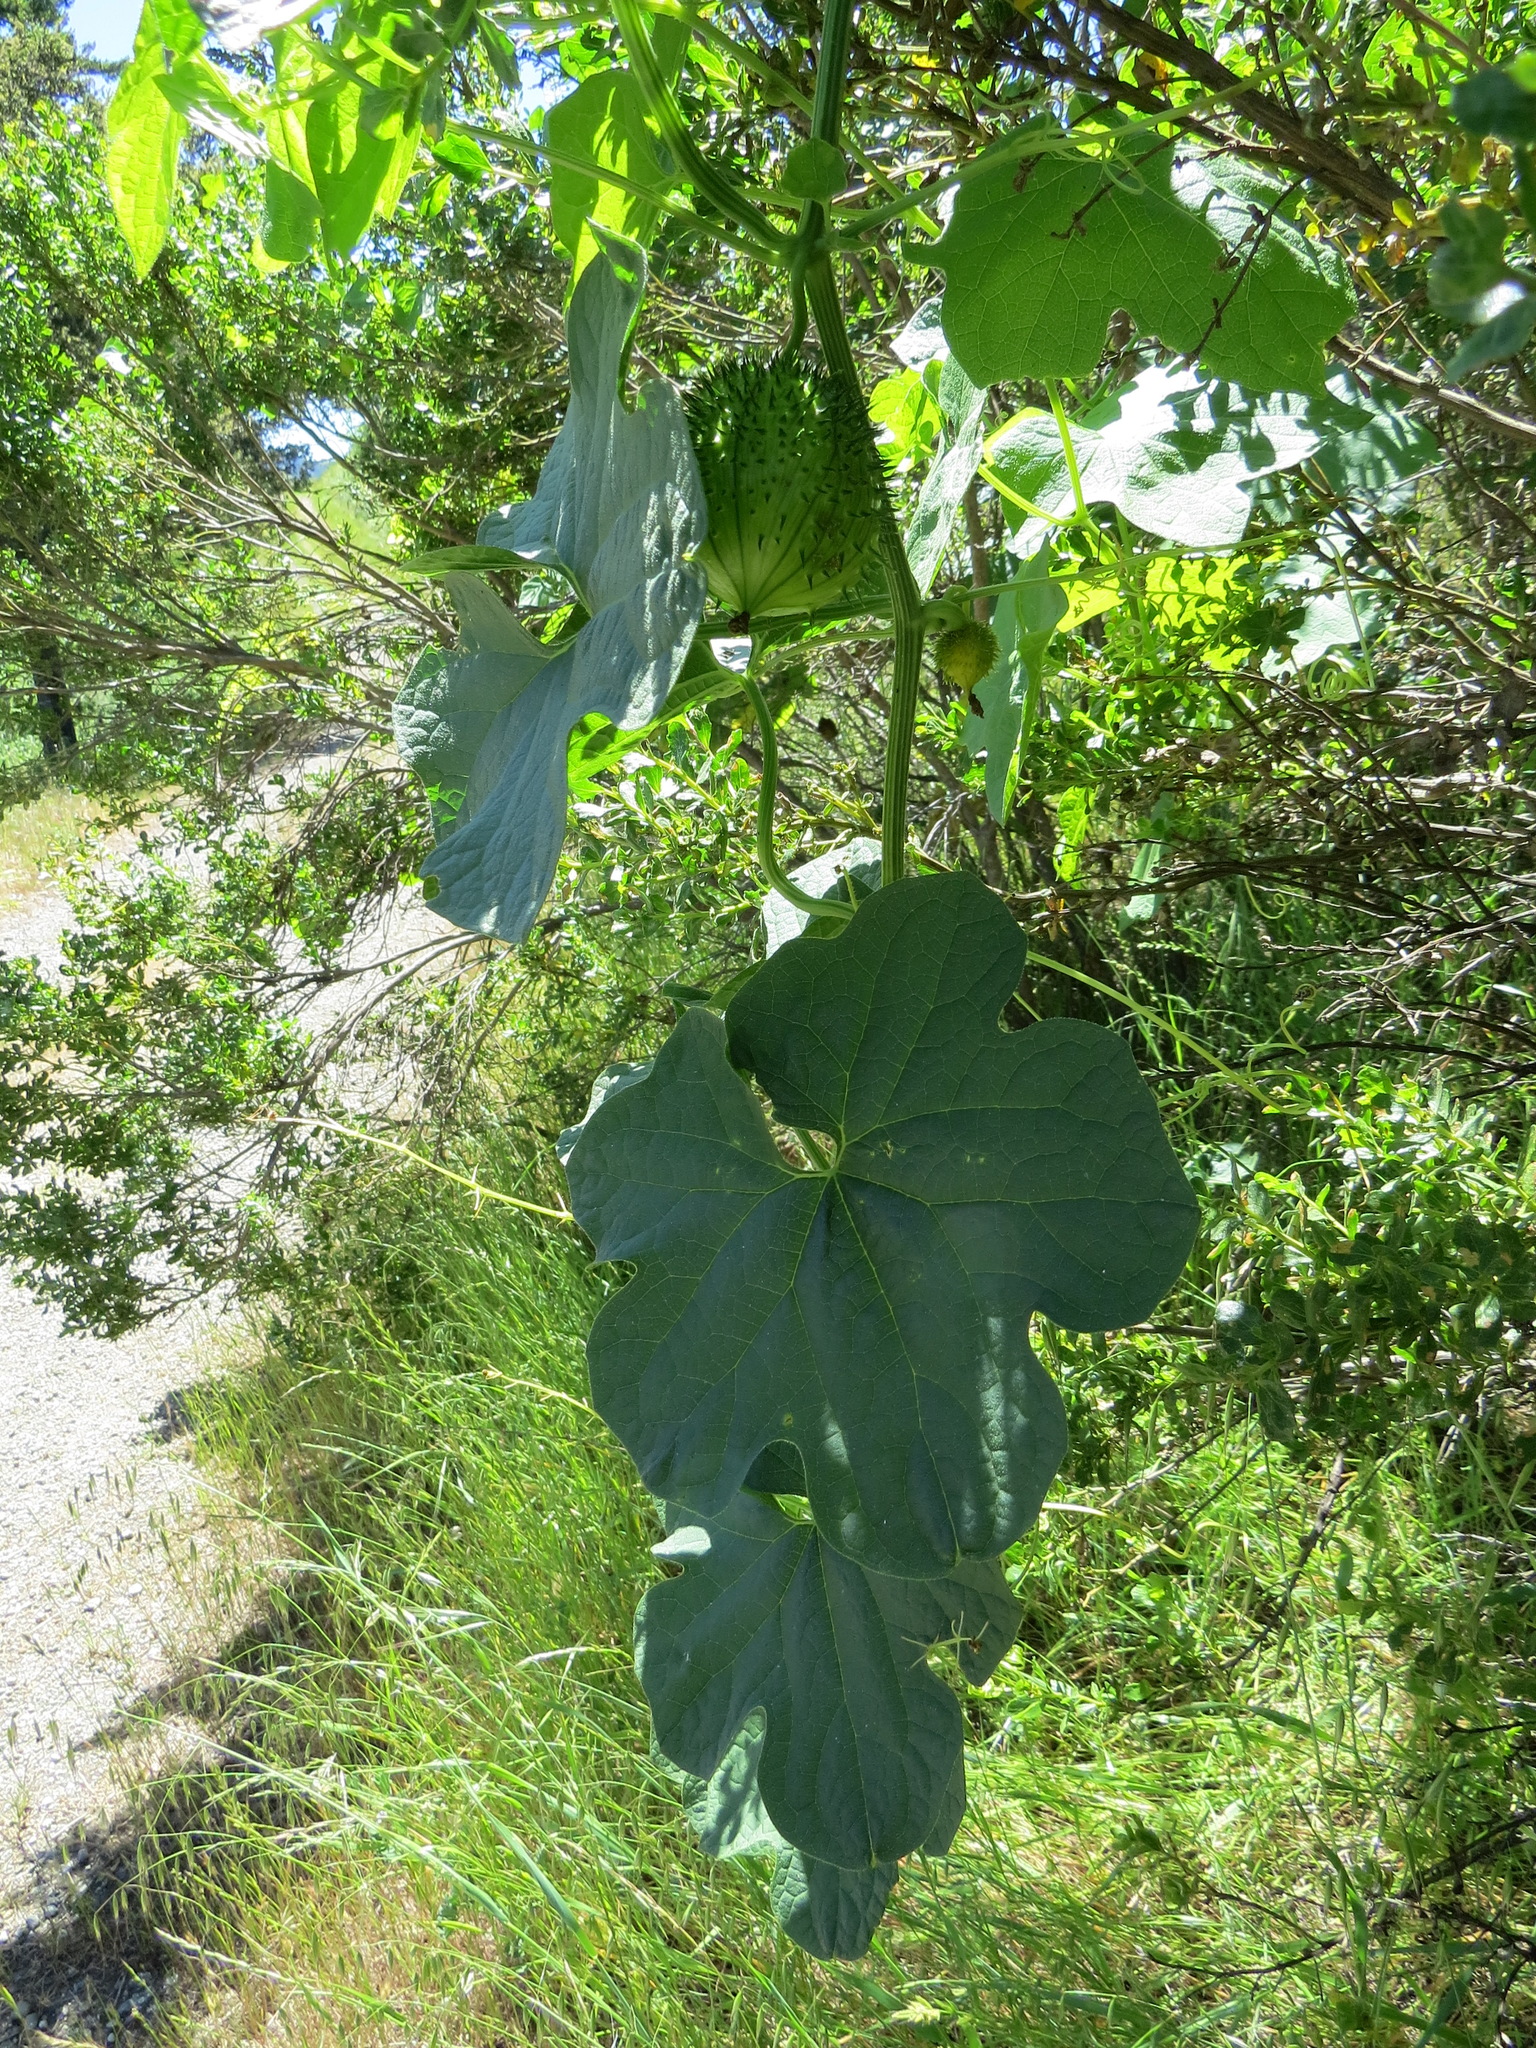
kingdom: Plantae
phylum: Tracheophyta
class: Magnoliopsida
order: Cucurbitales
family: Cucurbitaceae
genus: Marah
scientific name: Marah oregana
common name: Coastal manroot
